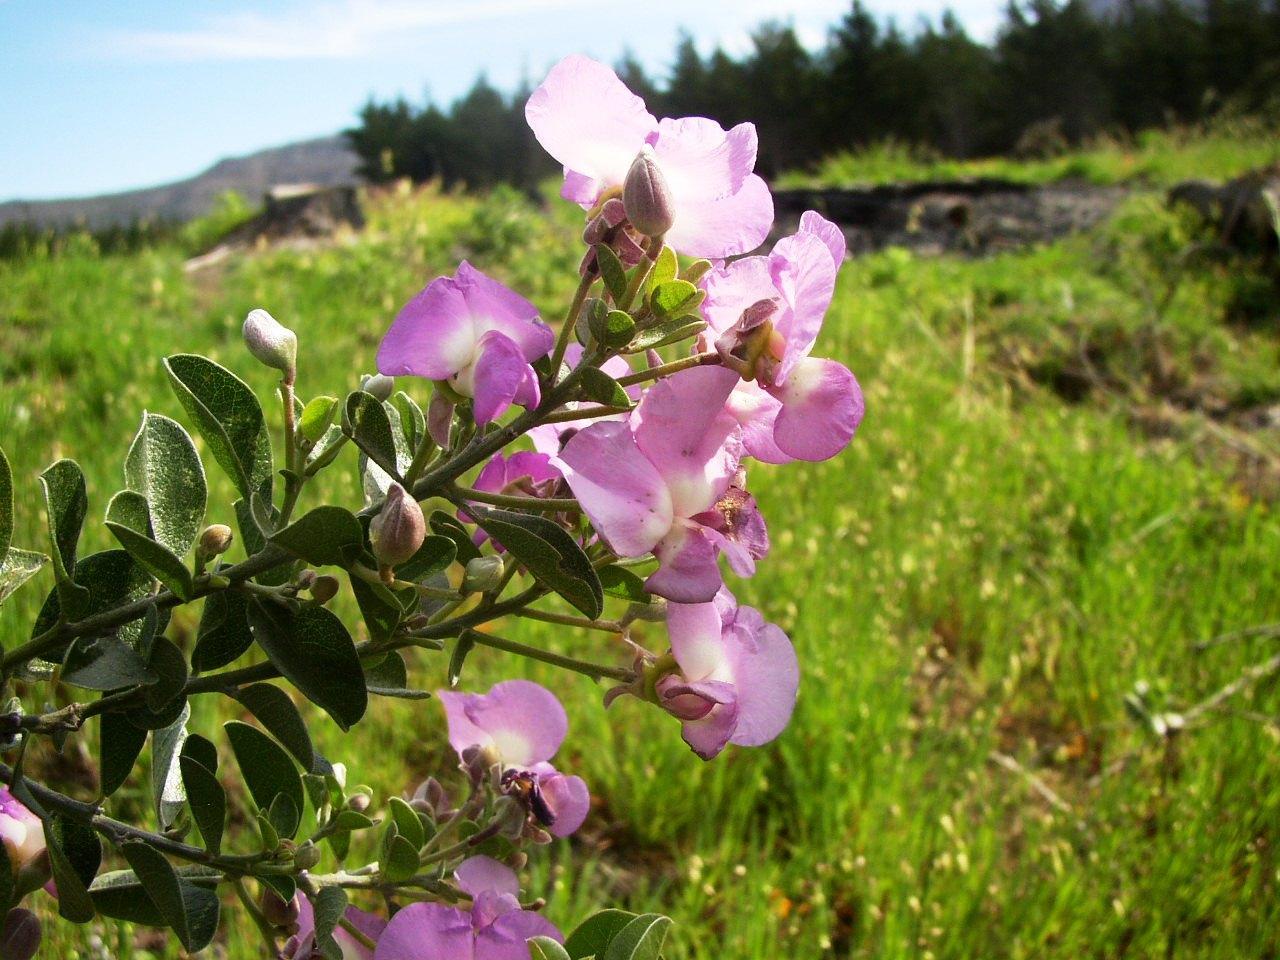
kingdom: Plantae
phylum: Tracheophyta
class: Magnoliopsida
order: Fabales
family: Fabaceae
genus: Podalyria
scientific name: Podalyria calyptrata
